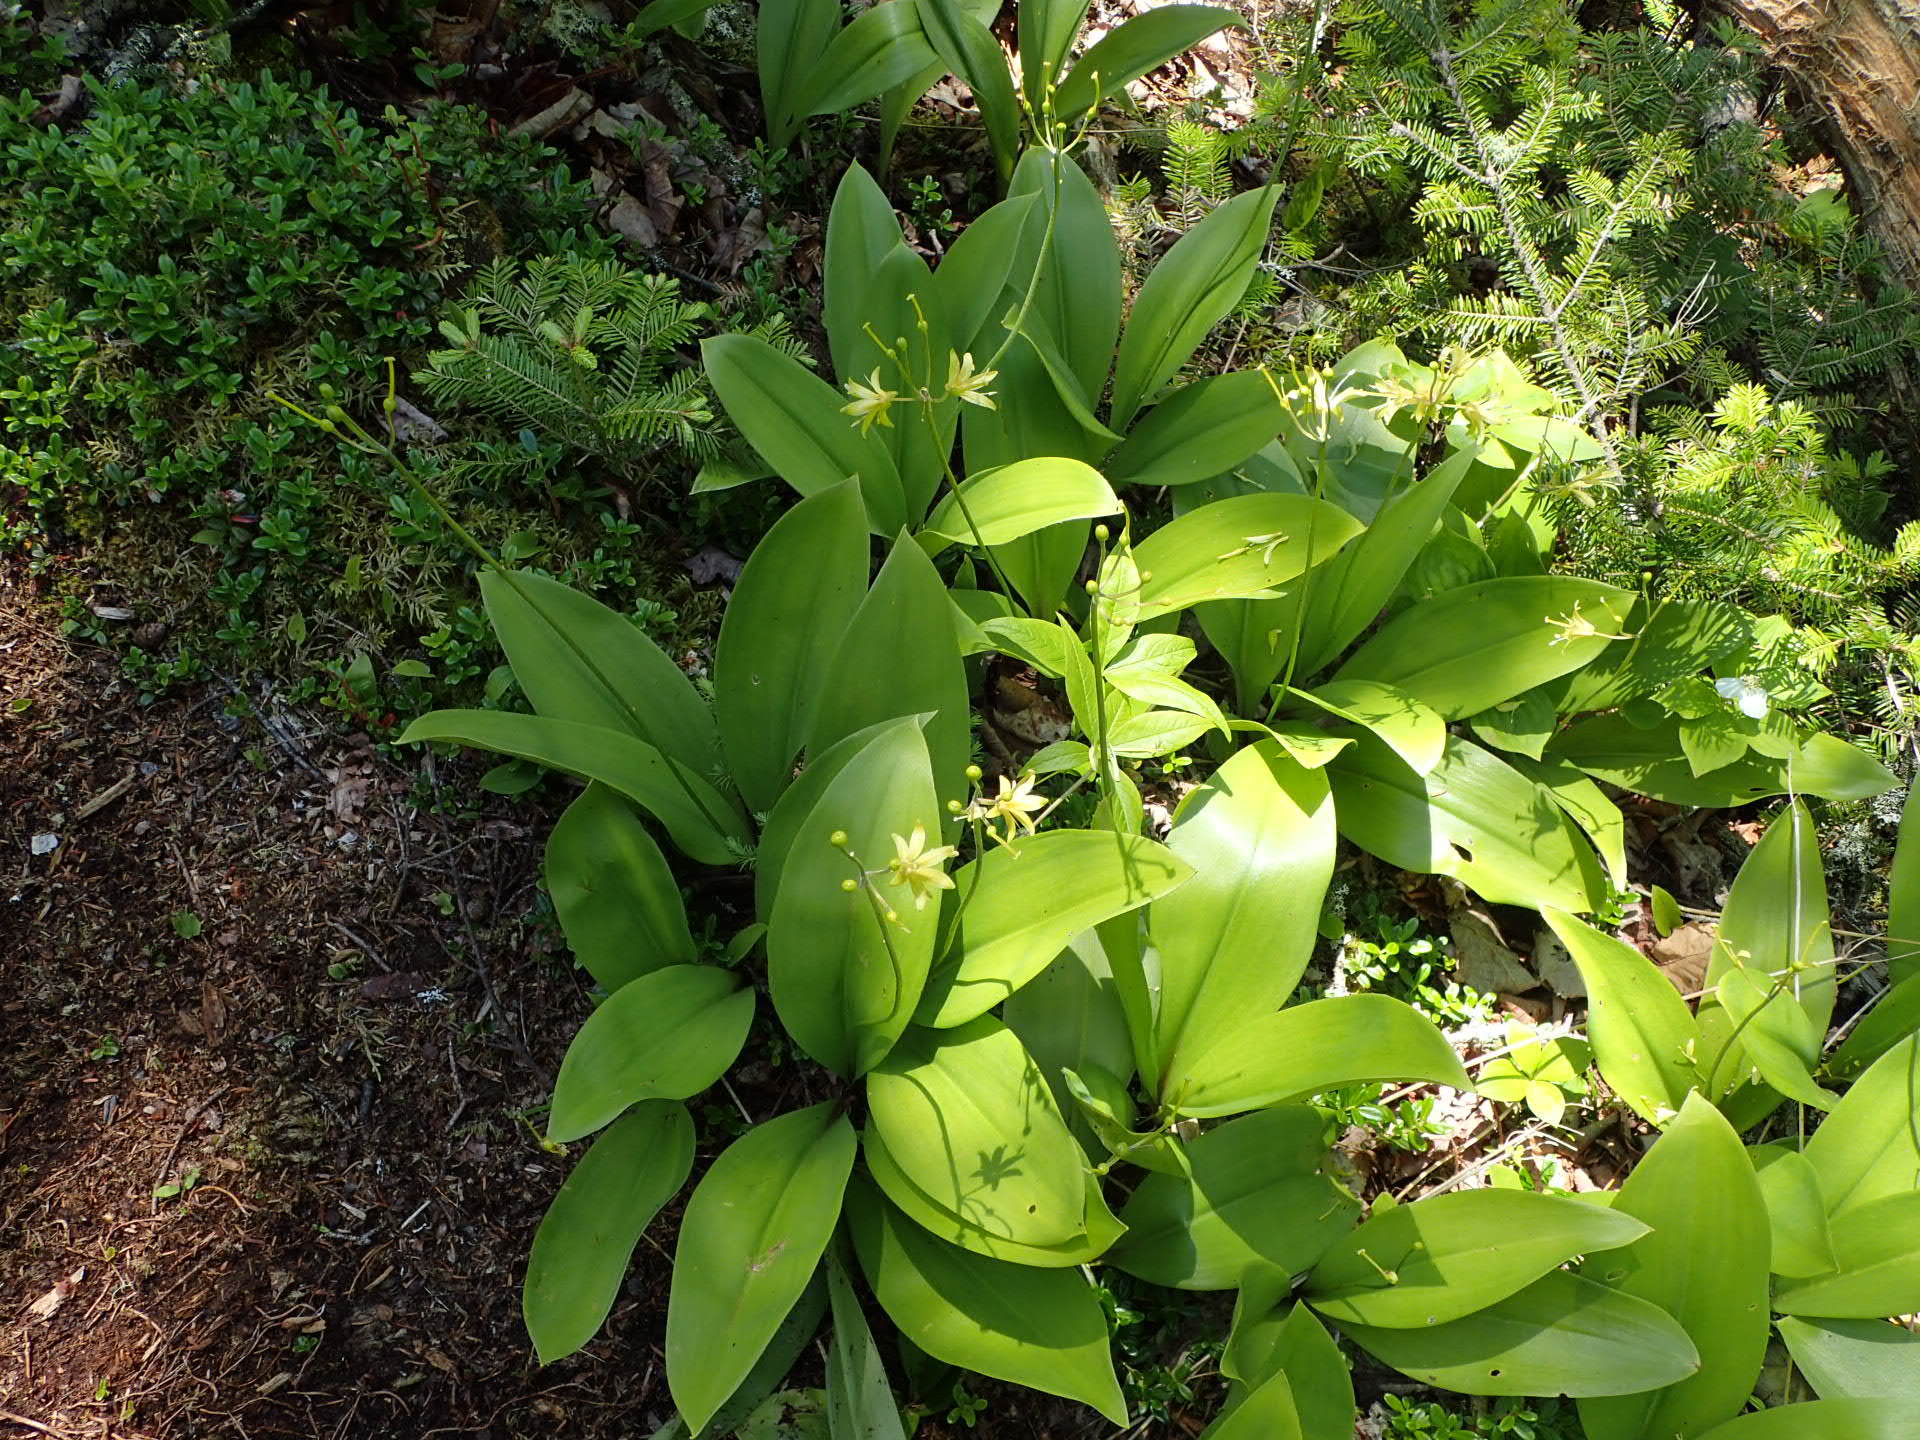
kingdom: Plantae
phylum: Tracheophyta
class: Liliopsida
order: Liliales
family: Liliaceae
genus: Clintonia
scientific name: Clintonia borealis
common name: Yellow clintonia
